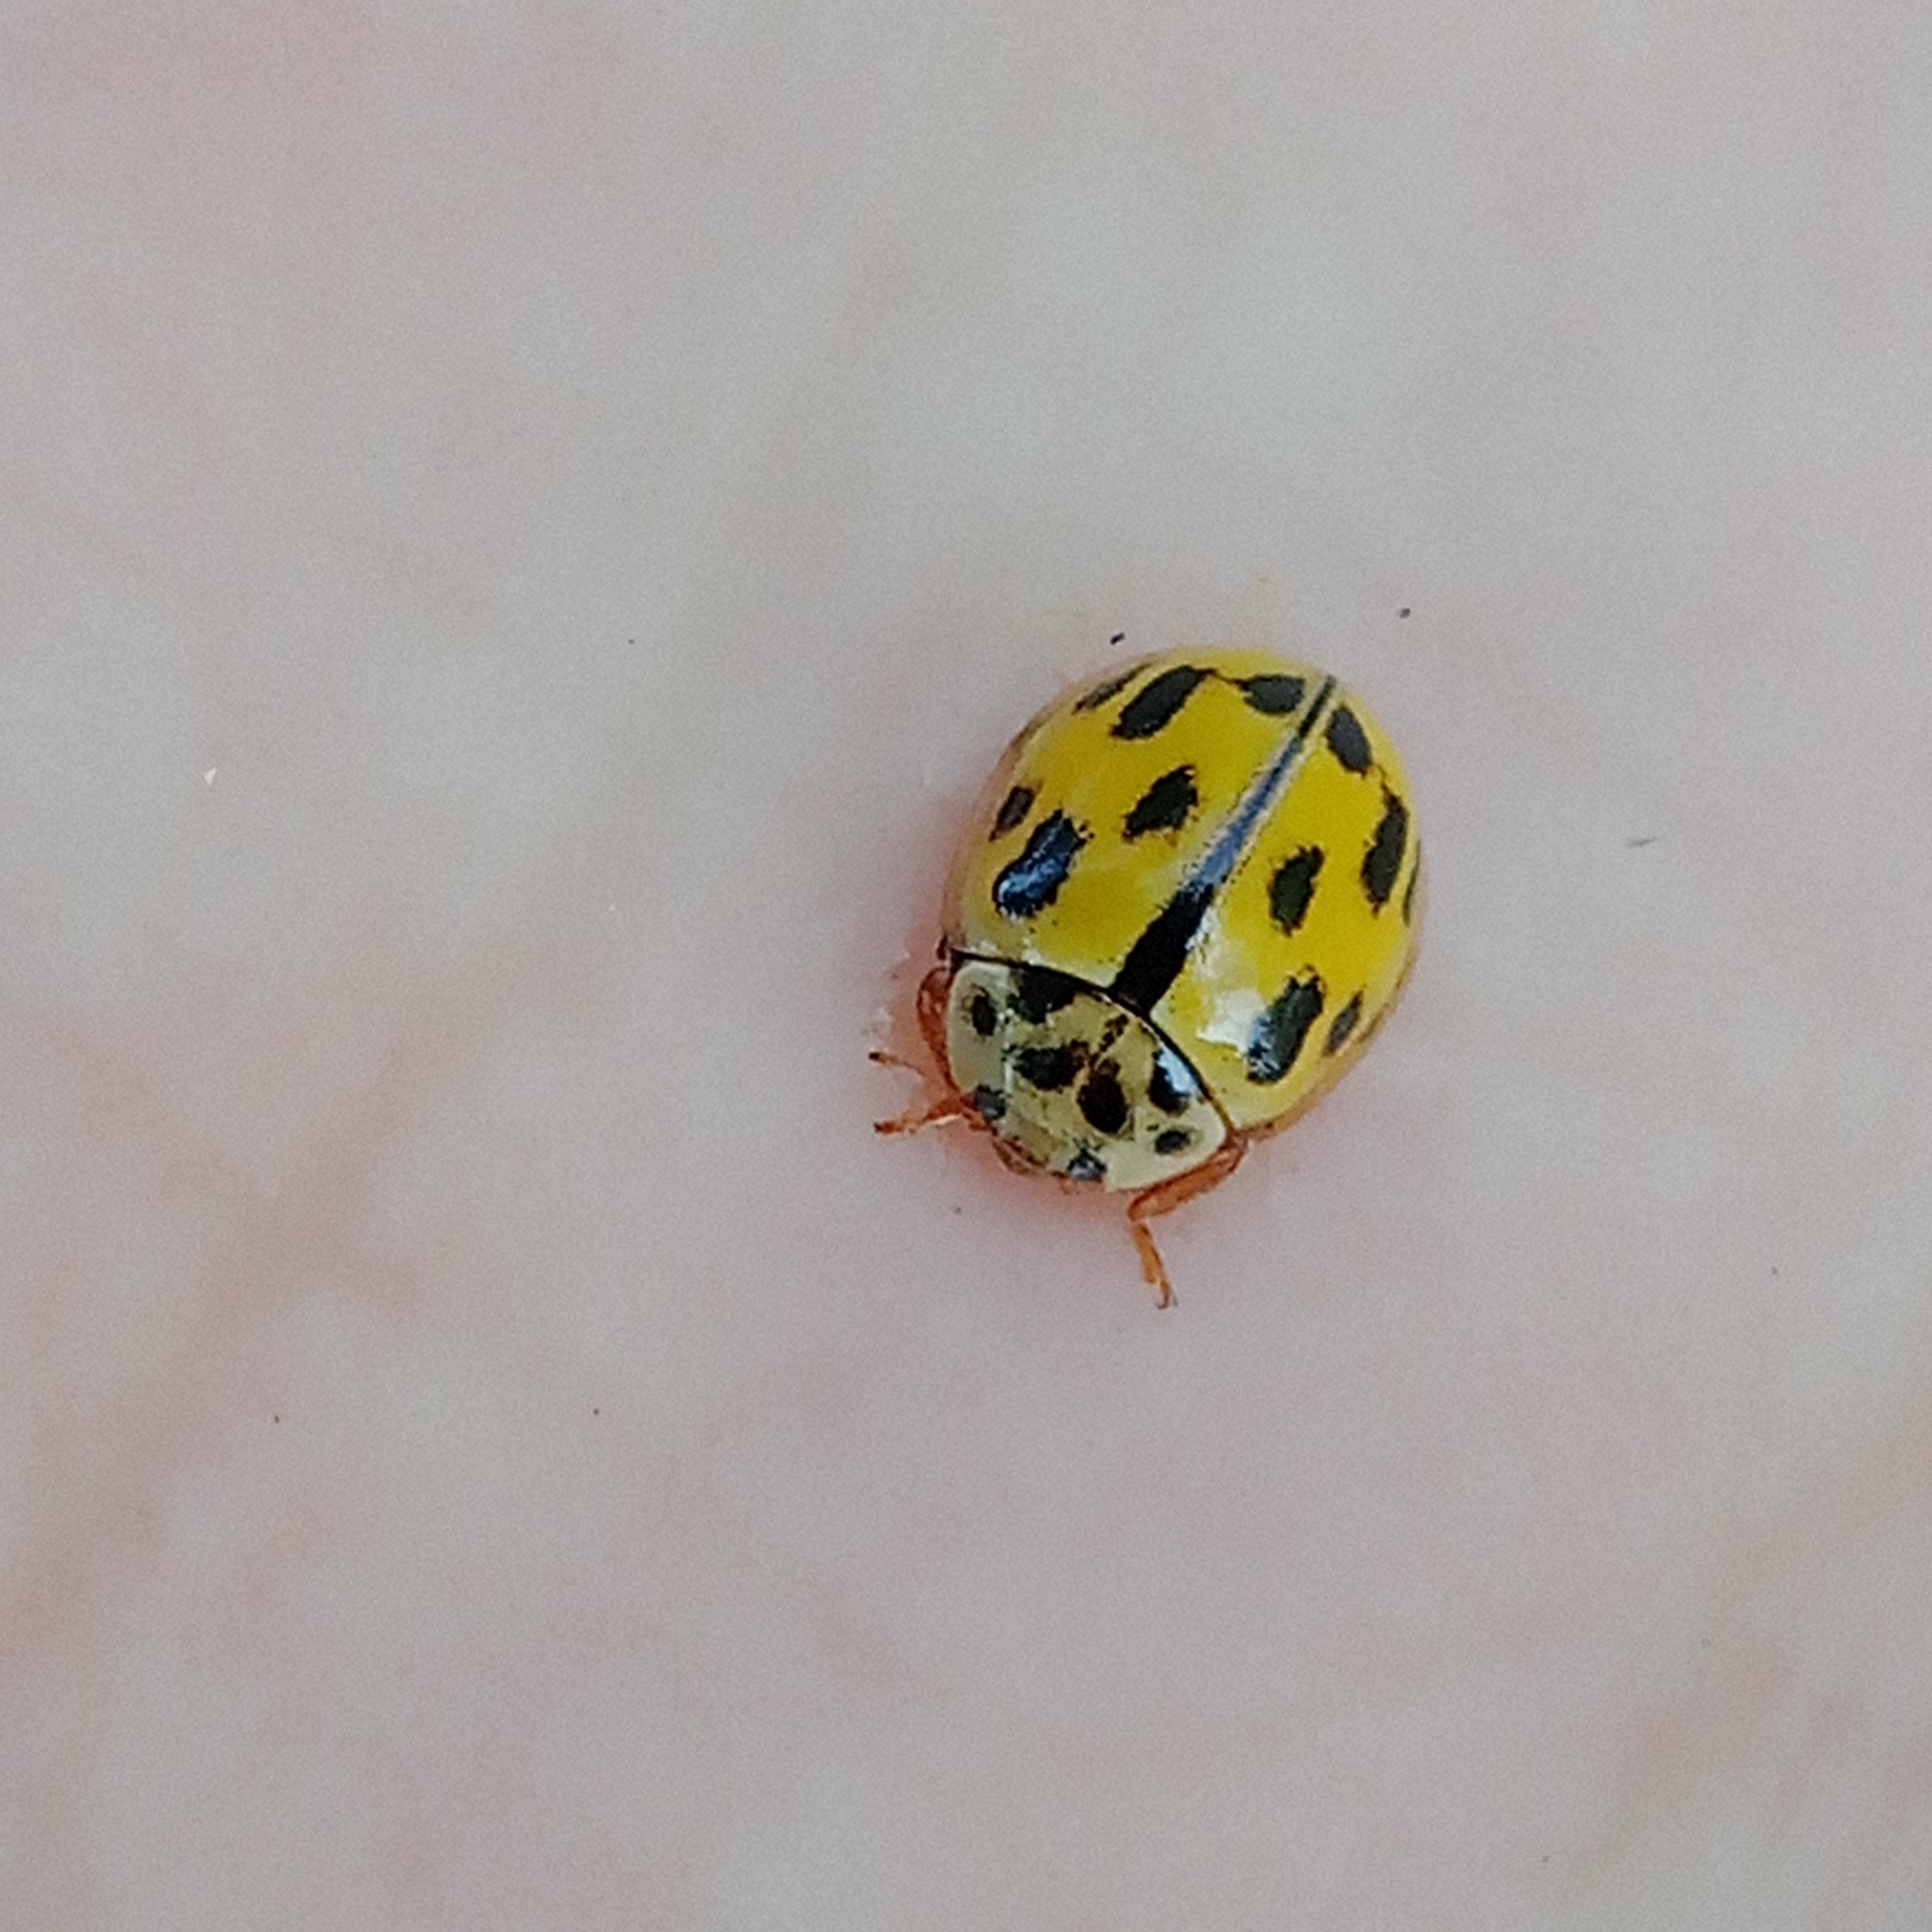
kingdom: Animalia
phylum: Arthropoda
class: Insecta
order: Coleoptera
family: Coccinellidae
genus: Propylaea
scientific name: Propylaea quatuordecimpunctata
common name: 14-spotted ladybird beetle
